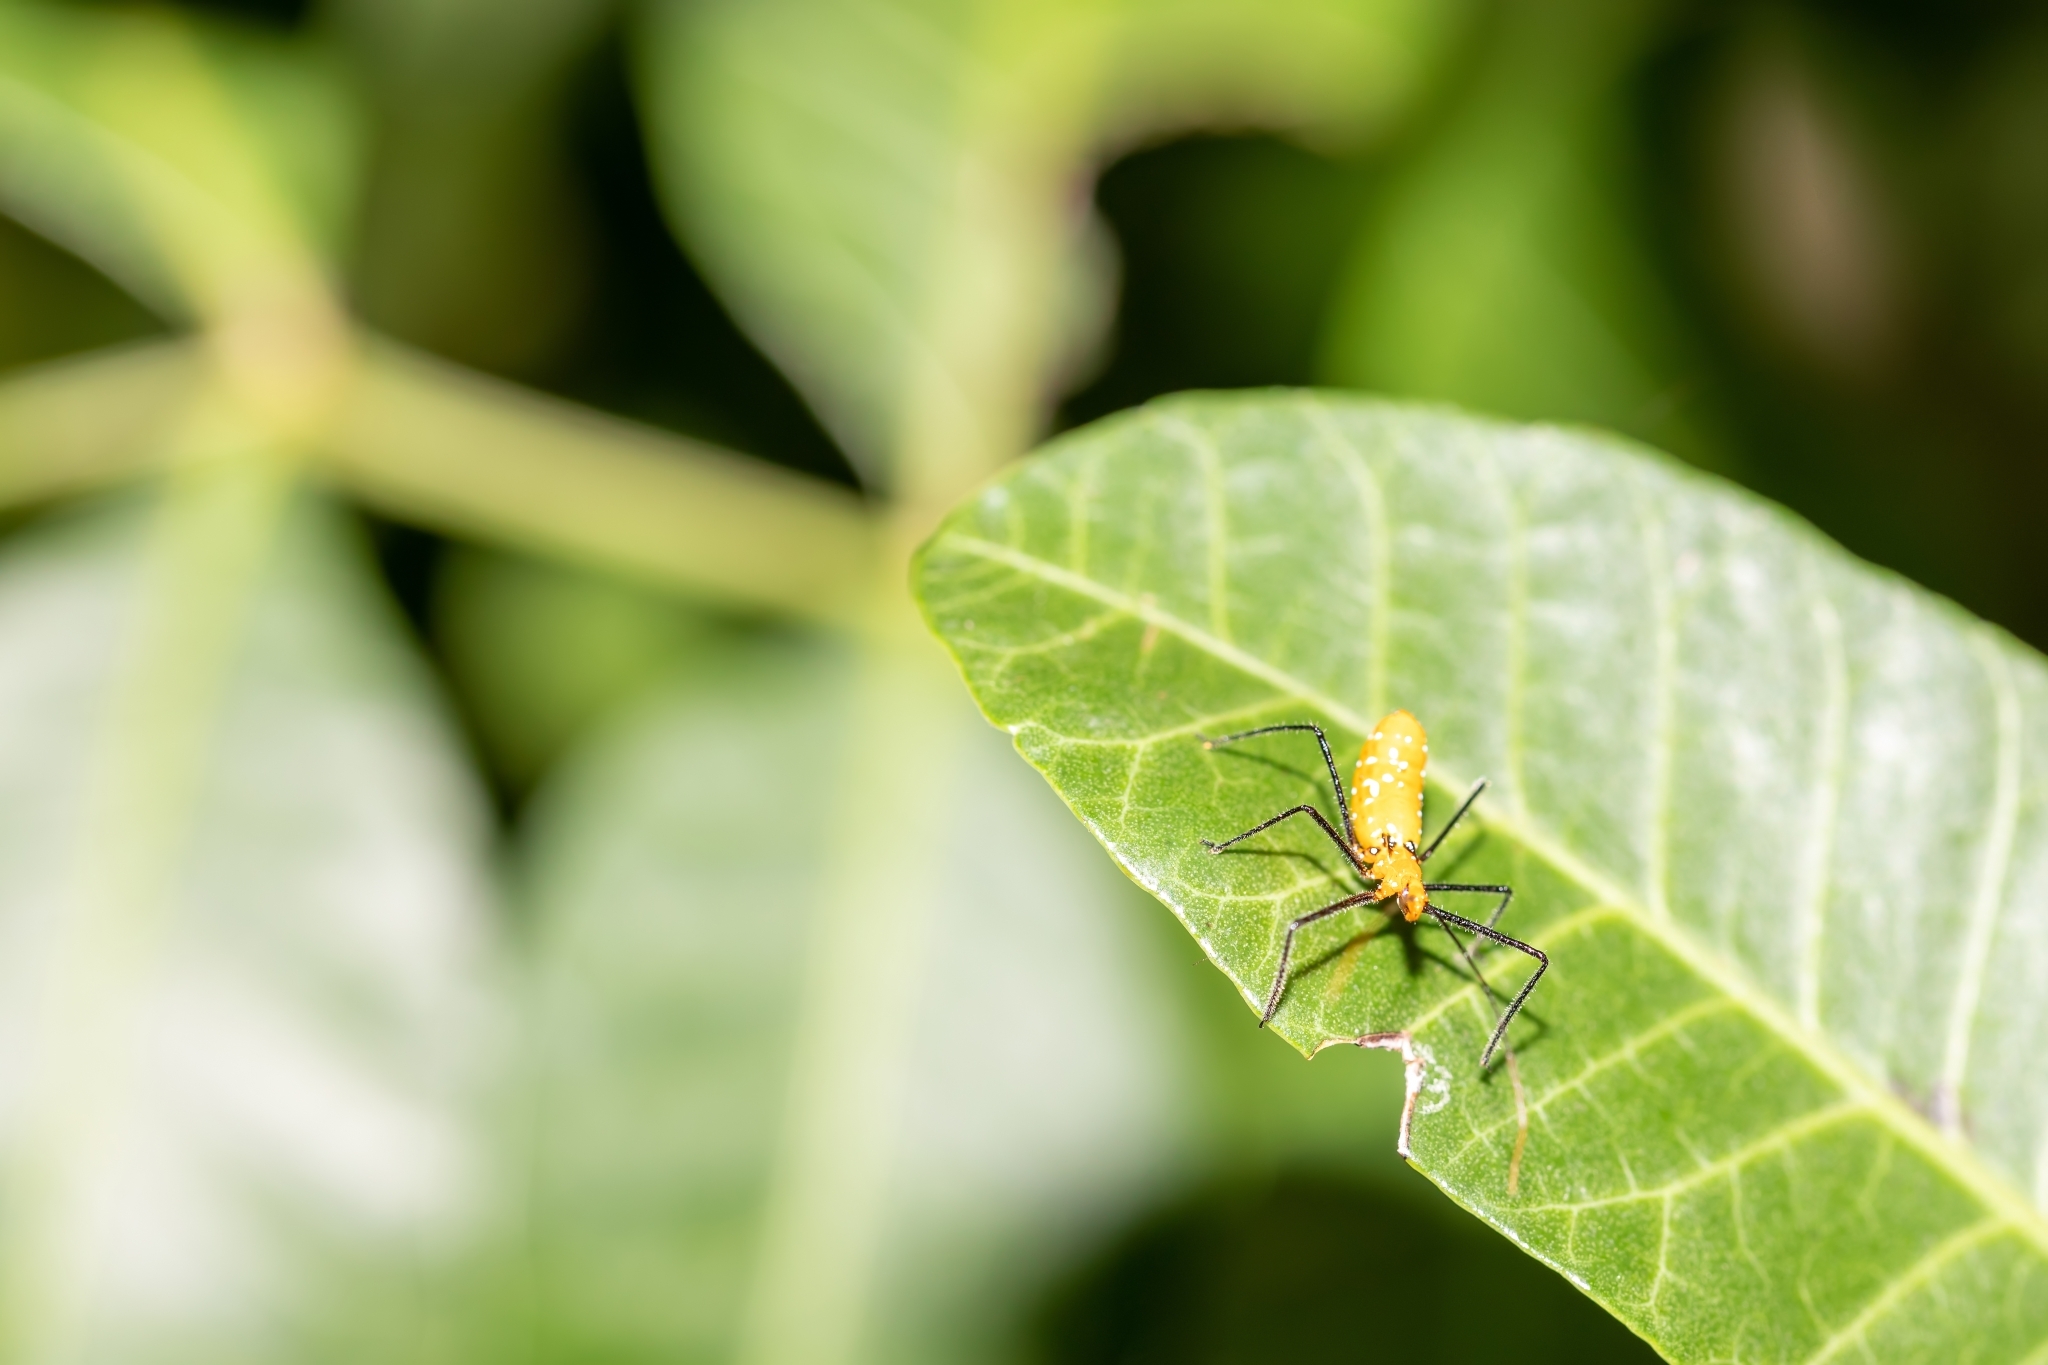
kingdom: Animalia
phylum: Arthropoda
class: Insecta
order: Hemiptera
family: Reduviidae
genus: Zelus
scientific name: Zelus longipes
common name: Milkweed assassin bug
